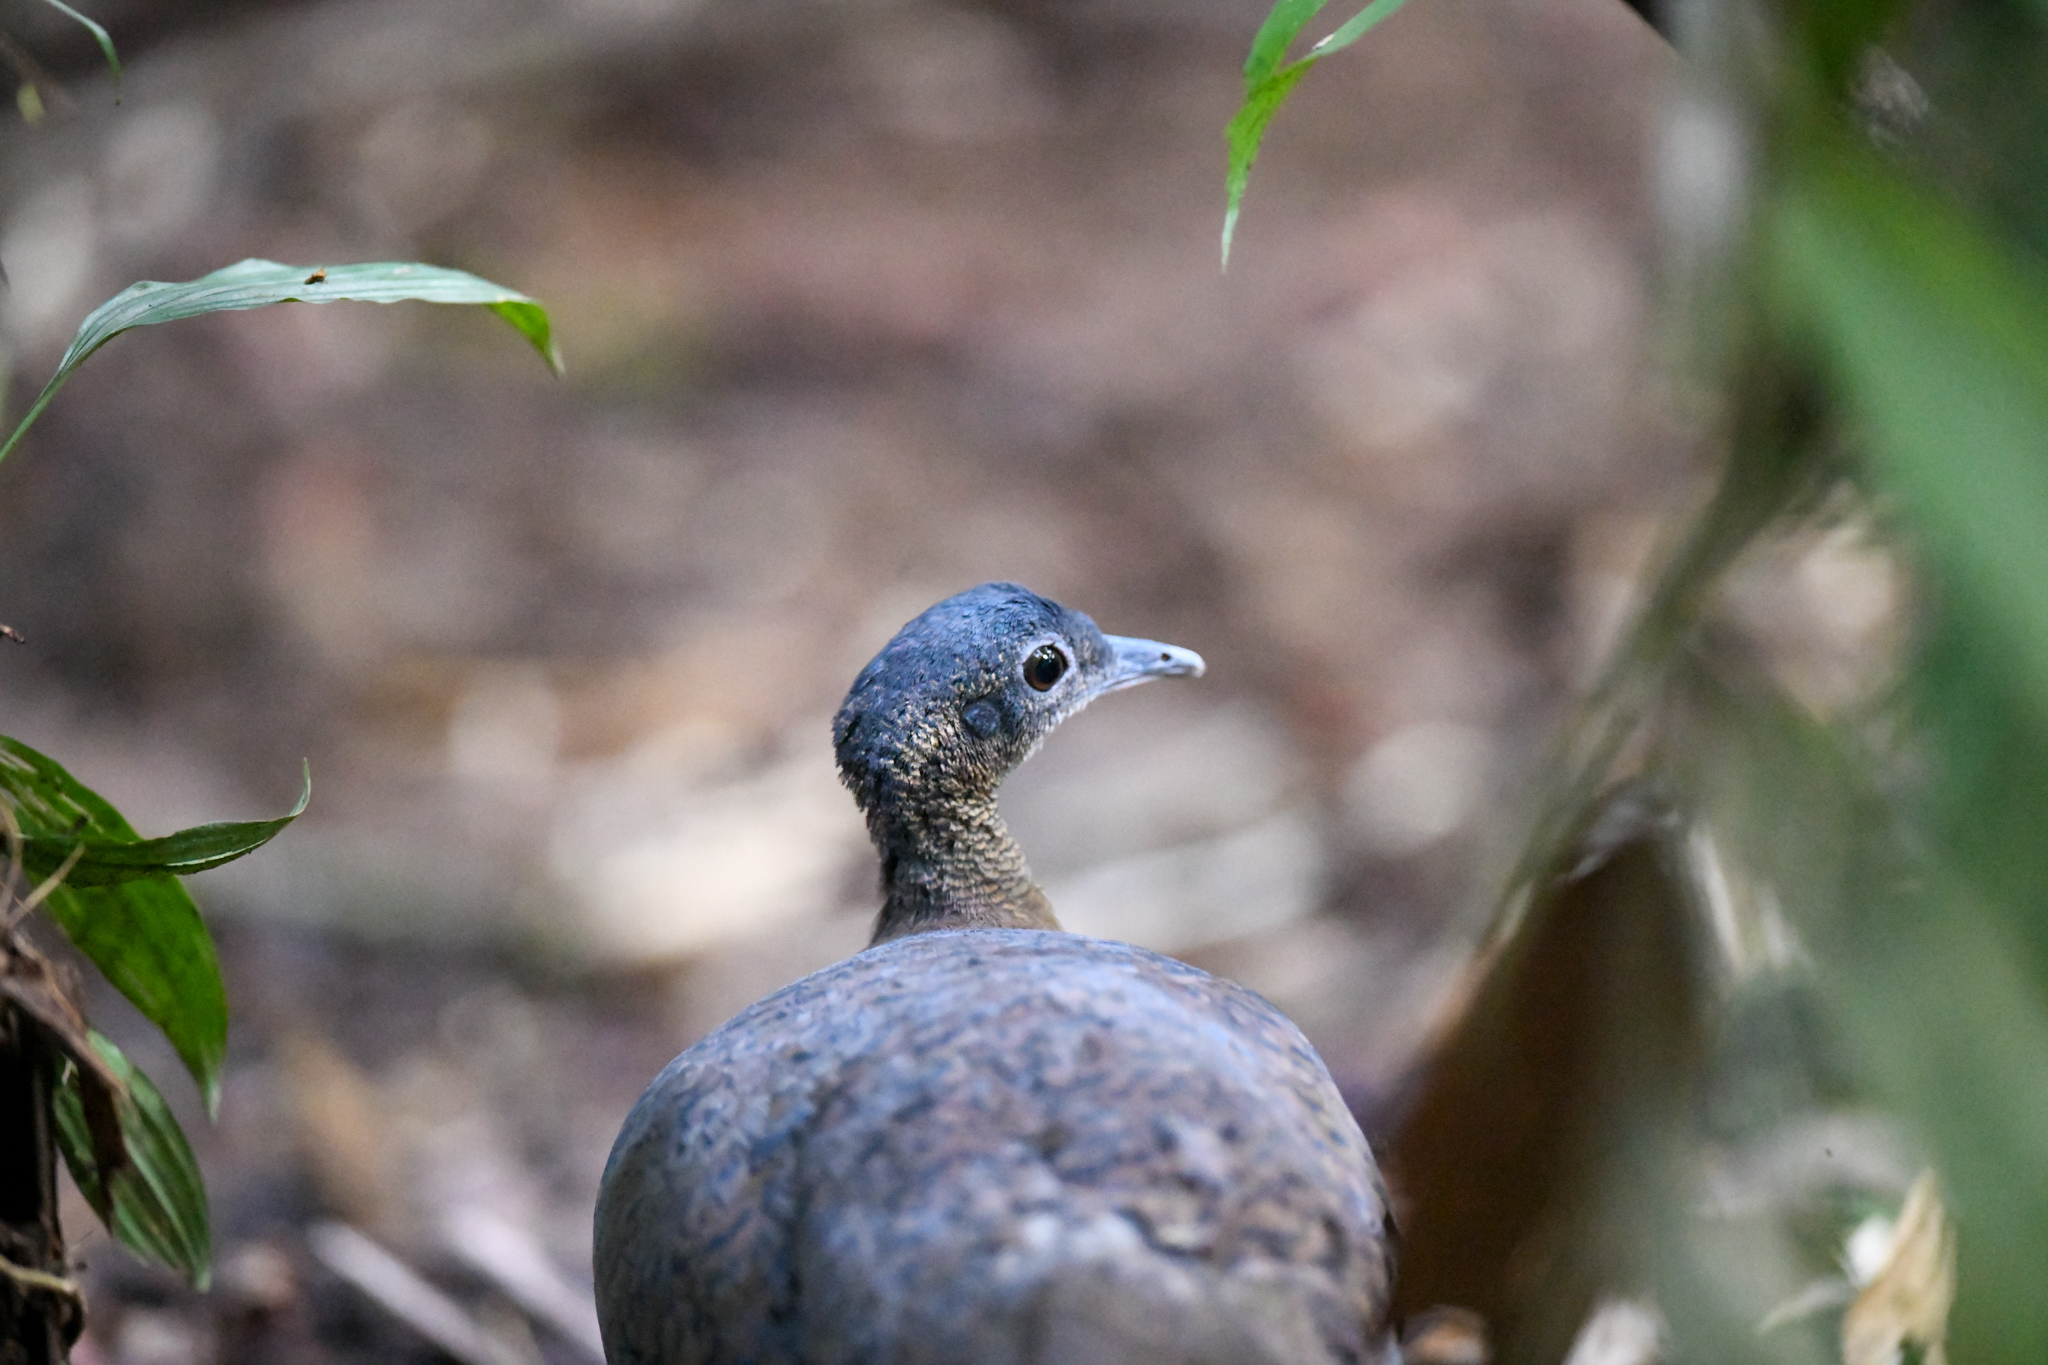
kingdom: Animalia
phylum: Chordata
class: Aves
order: Tinamiformes
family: Tinamidae
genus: Tinamus
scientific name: Tinamus major
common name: Great tinamou
